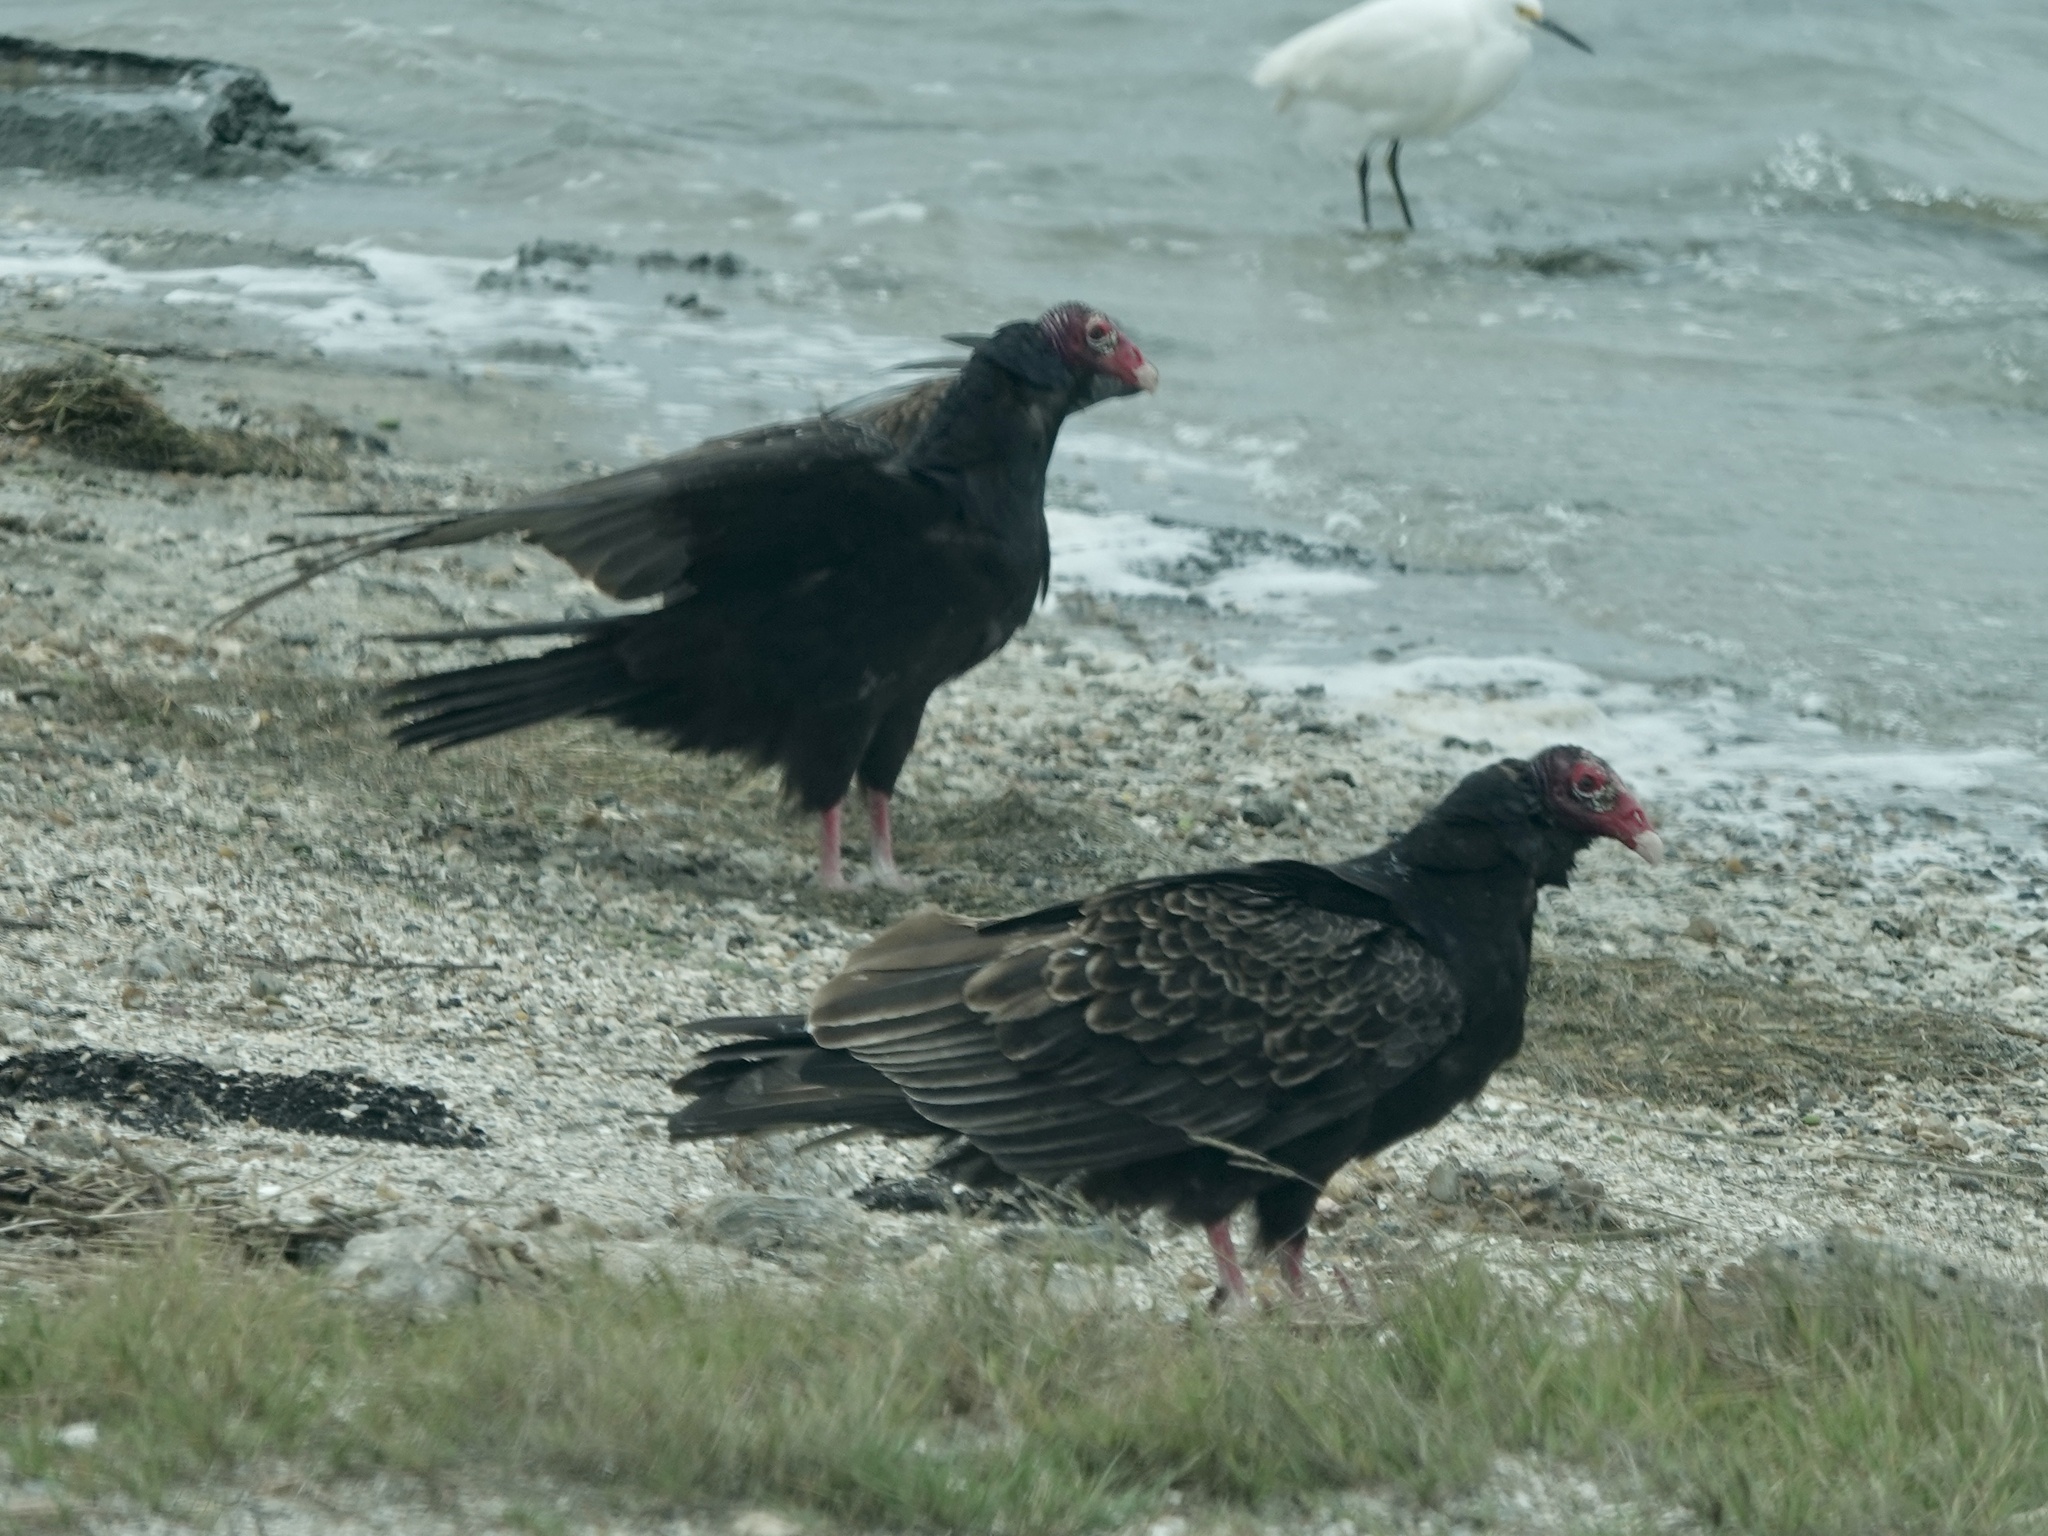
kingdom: Animalia
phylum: Chordata
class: Aves
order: Accipitriformes
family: Cathartidae
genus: Cathartes
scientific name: Cathartes aura
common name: Turkey vulture
